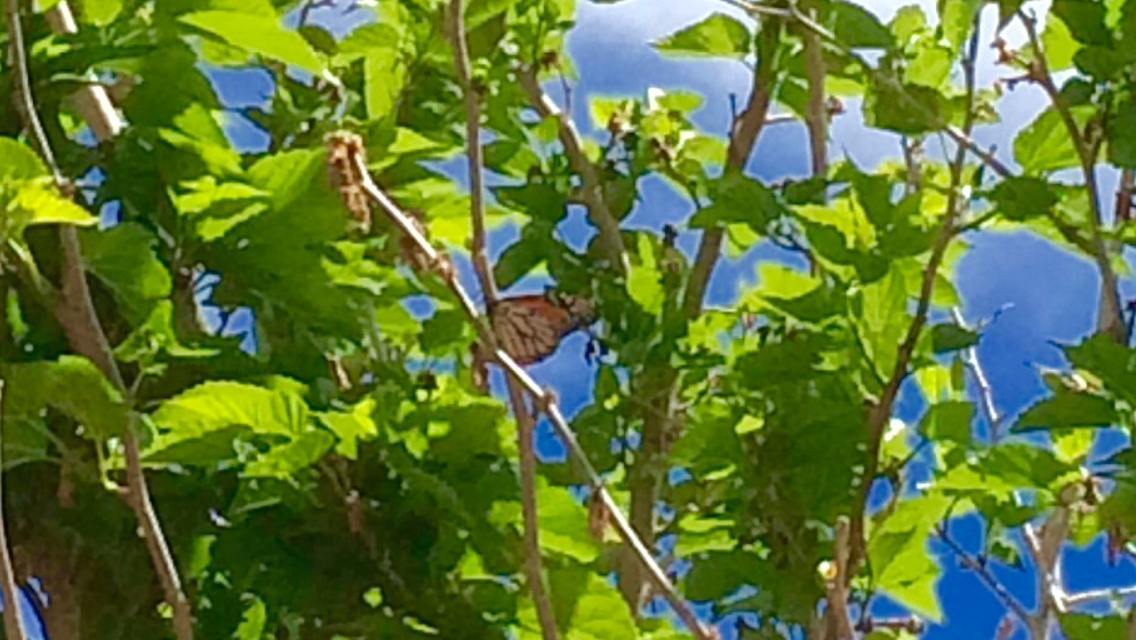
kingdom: Animalia
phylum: Arthropoda
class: Insecta
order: Lepidoptera
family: Nymphalidae
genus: Danaus
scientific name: Danaus plexippus
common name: Monarch
